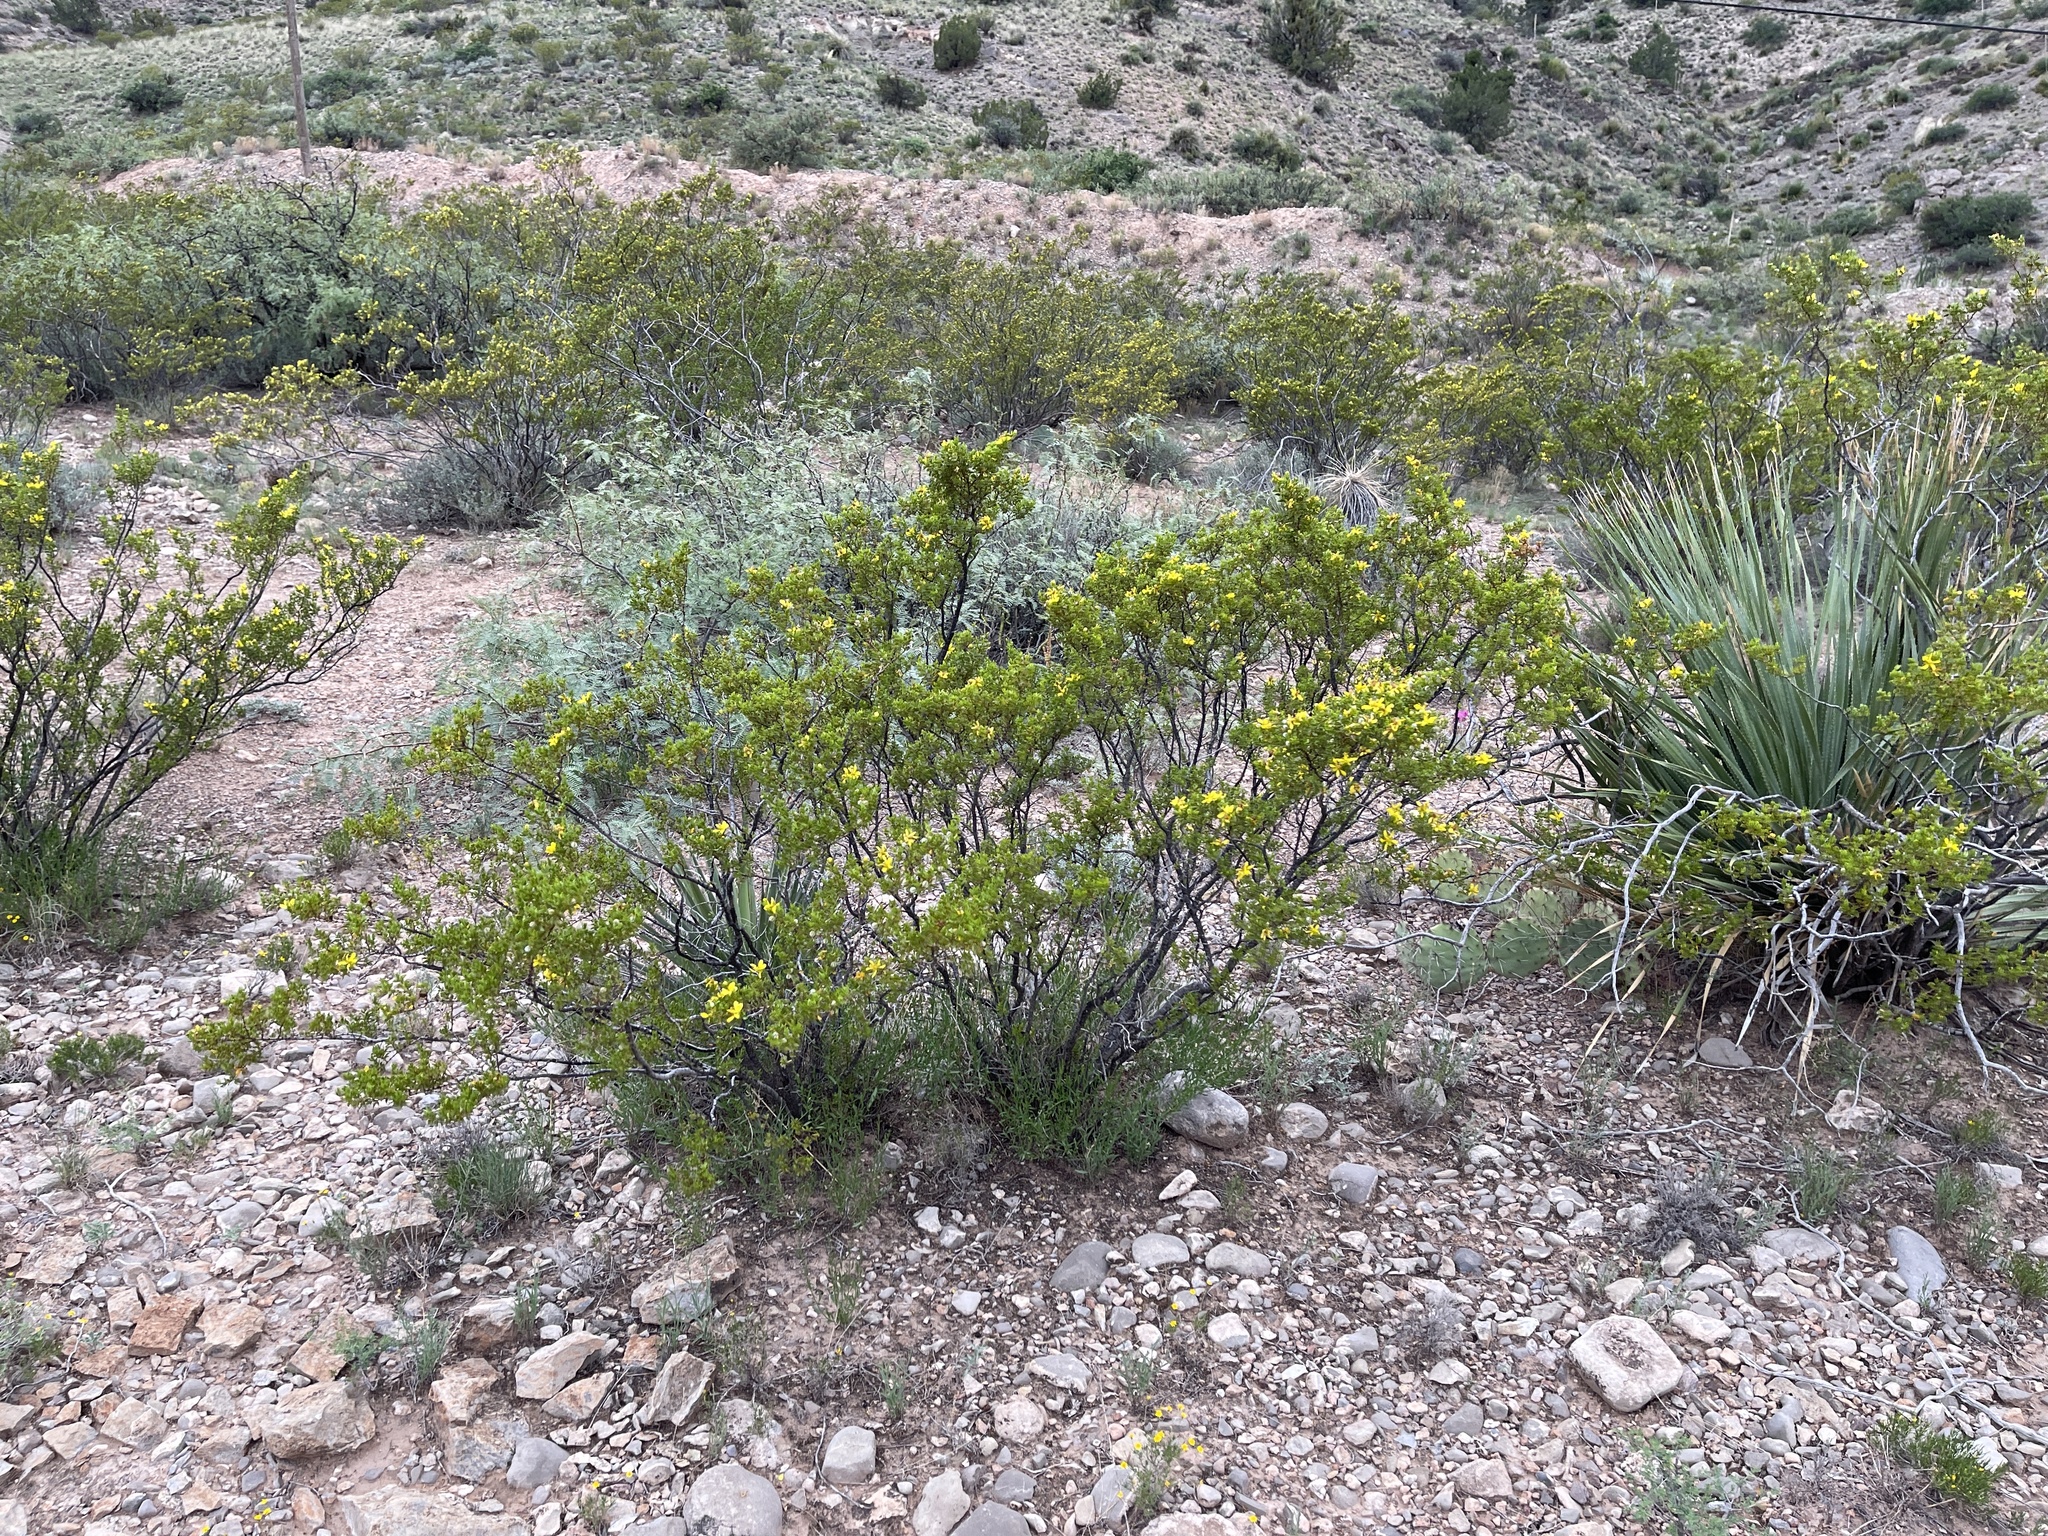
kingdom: Plantae
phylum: Tracheophyta
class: Magnoliopsida
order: Zygophyllales
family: Zygophyllaceae
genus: Larrea
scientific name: Larrea tridentata
